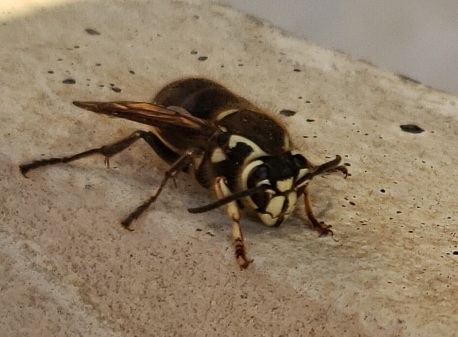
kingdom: Animalia
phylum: Arthropoda
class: Insecta
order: Hymenoptera
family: Vespidae
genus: Dolichovespula
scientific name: Dolichovespula maculata
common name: Bald-faced hornet
